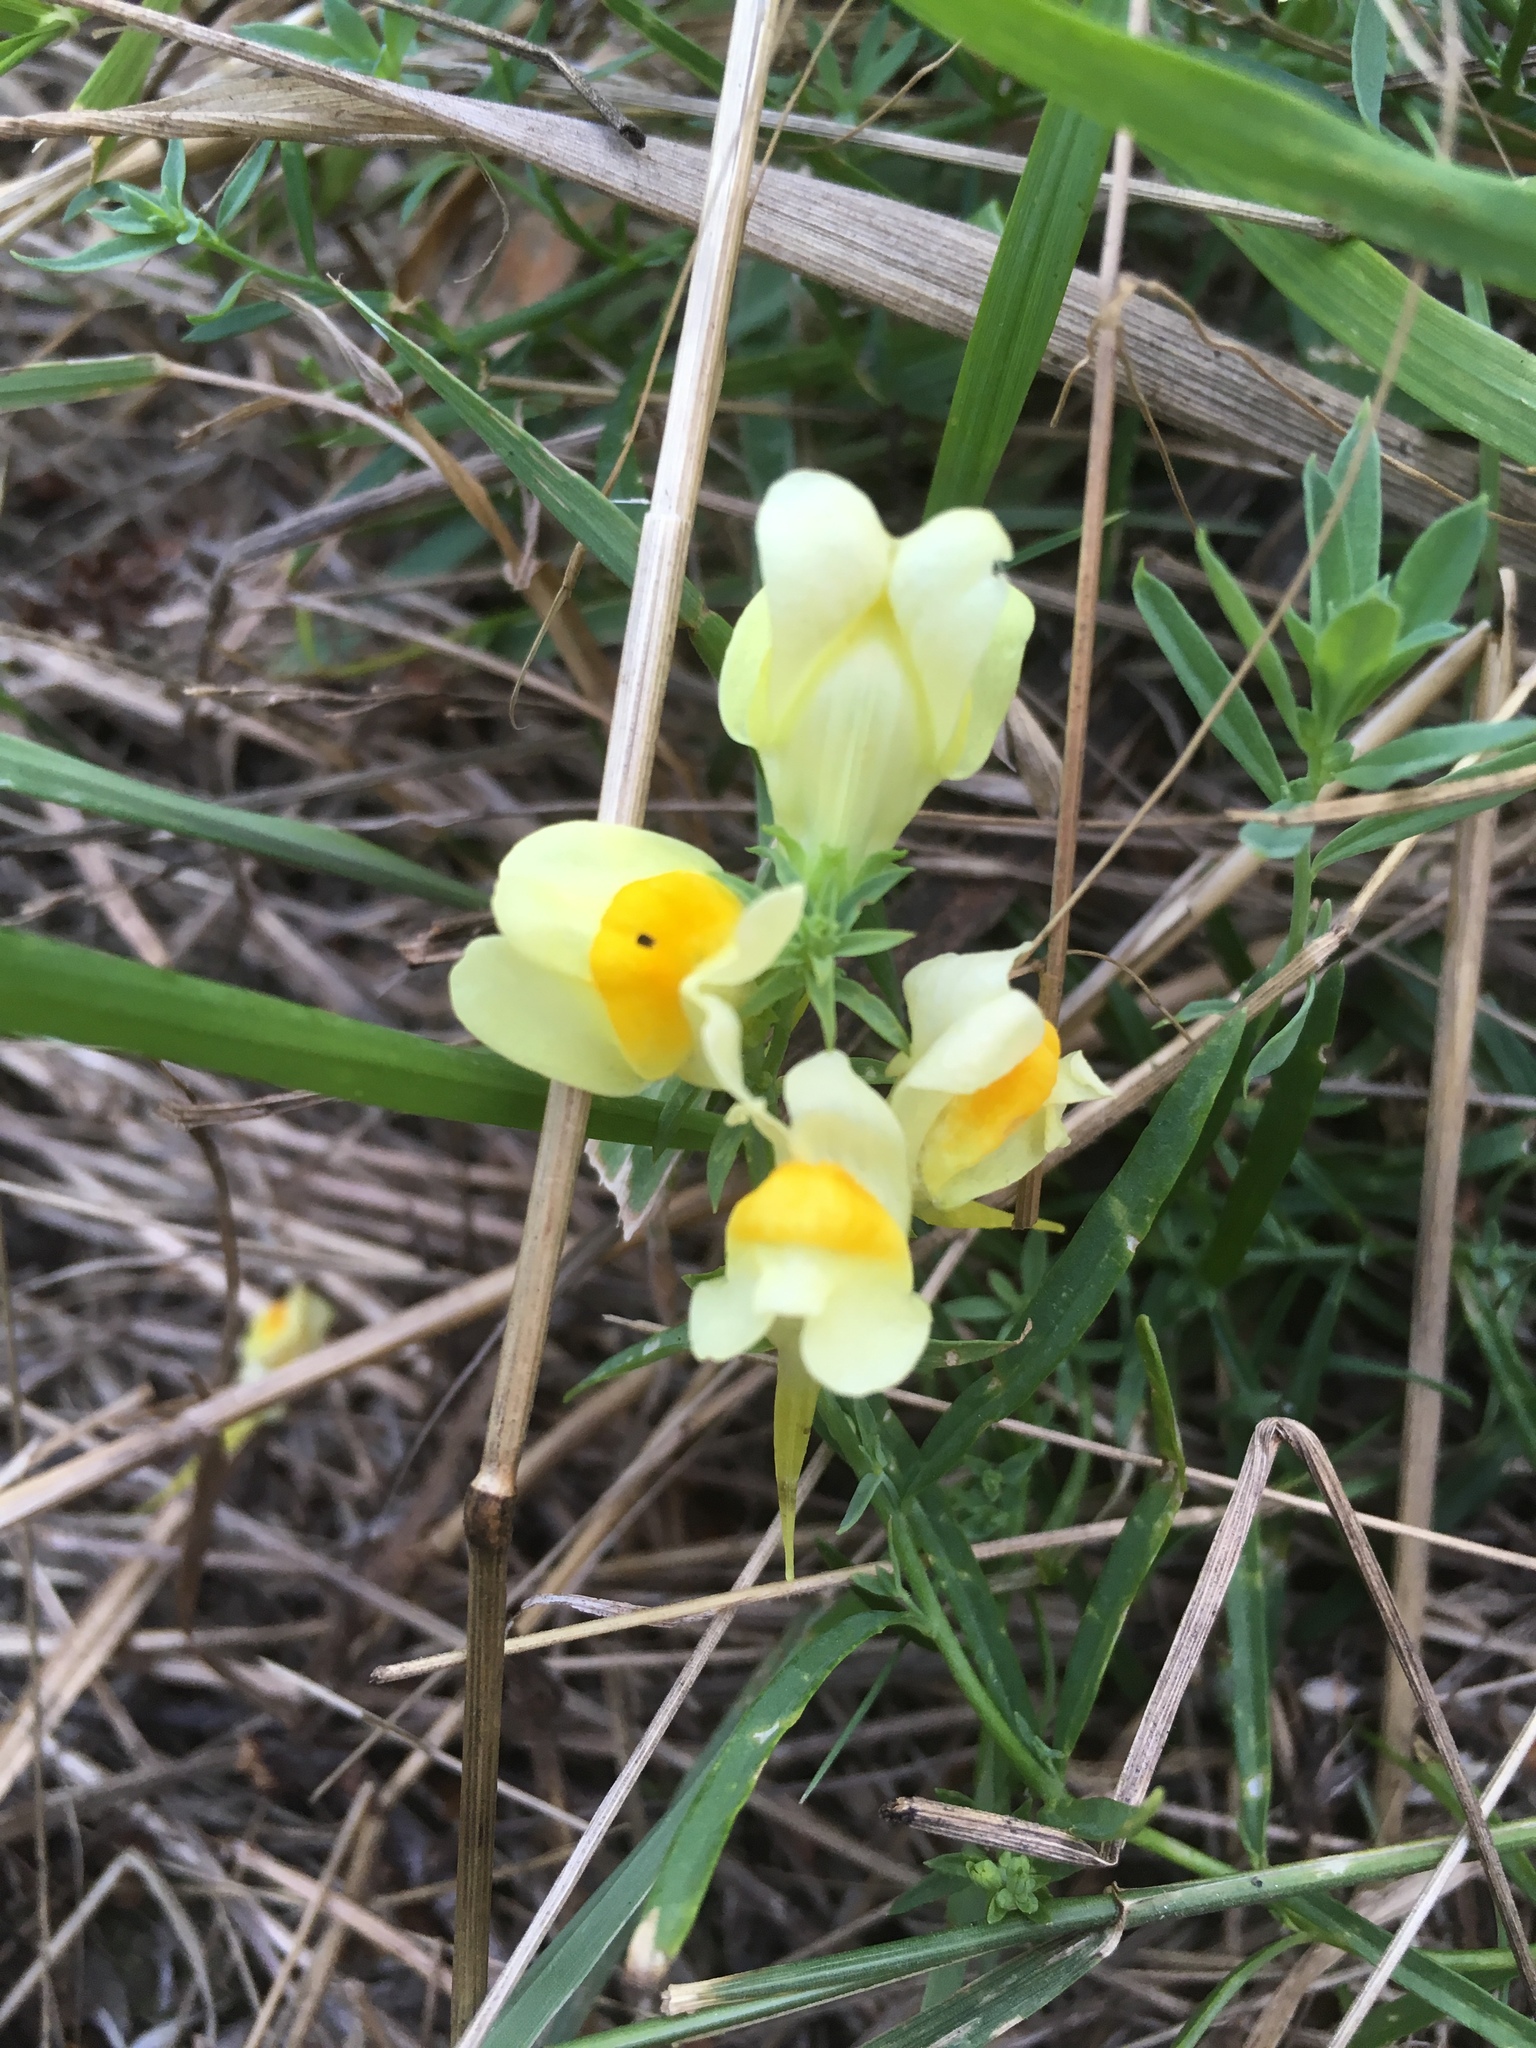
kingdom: Plantae
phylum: Tracheophyta
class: Magnoliopsida
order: Lamiales
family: Plantaginaceae
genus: Linaria
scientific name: Linaria vulgaris
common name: Butter and eggs
